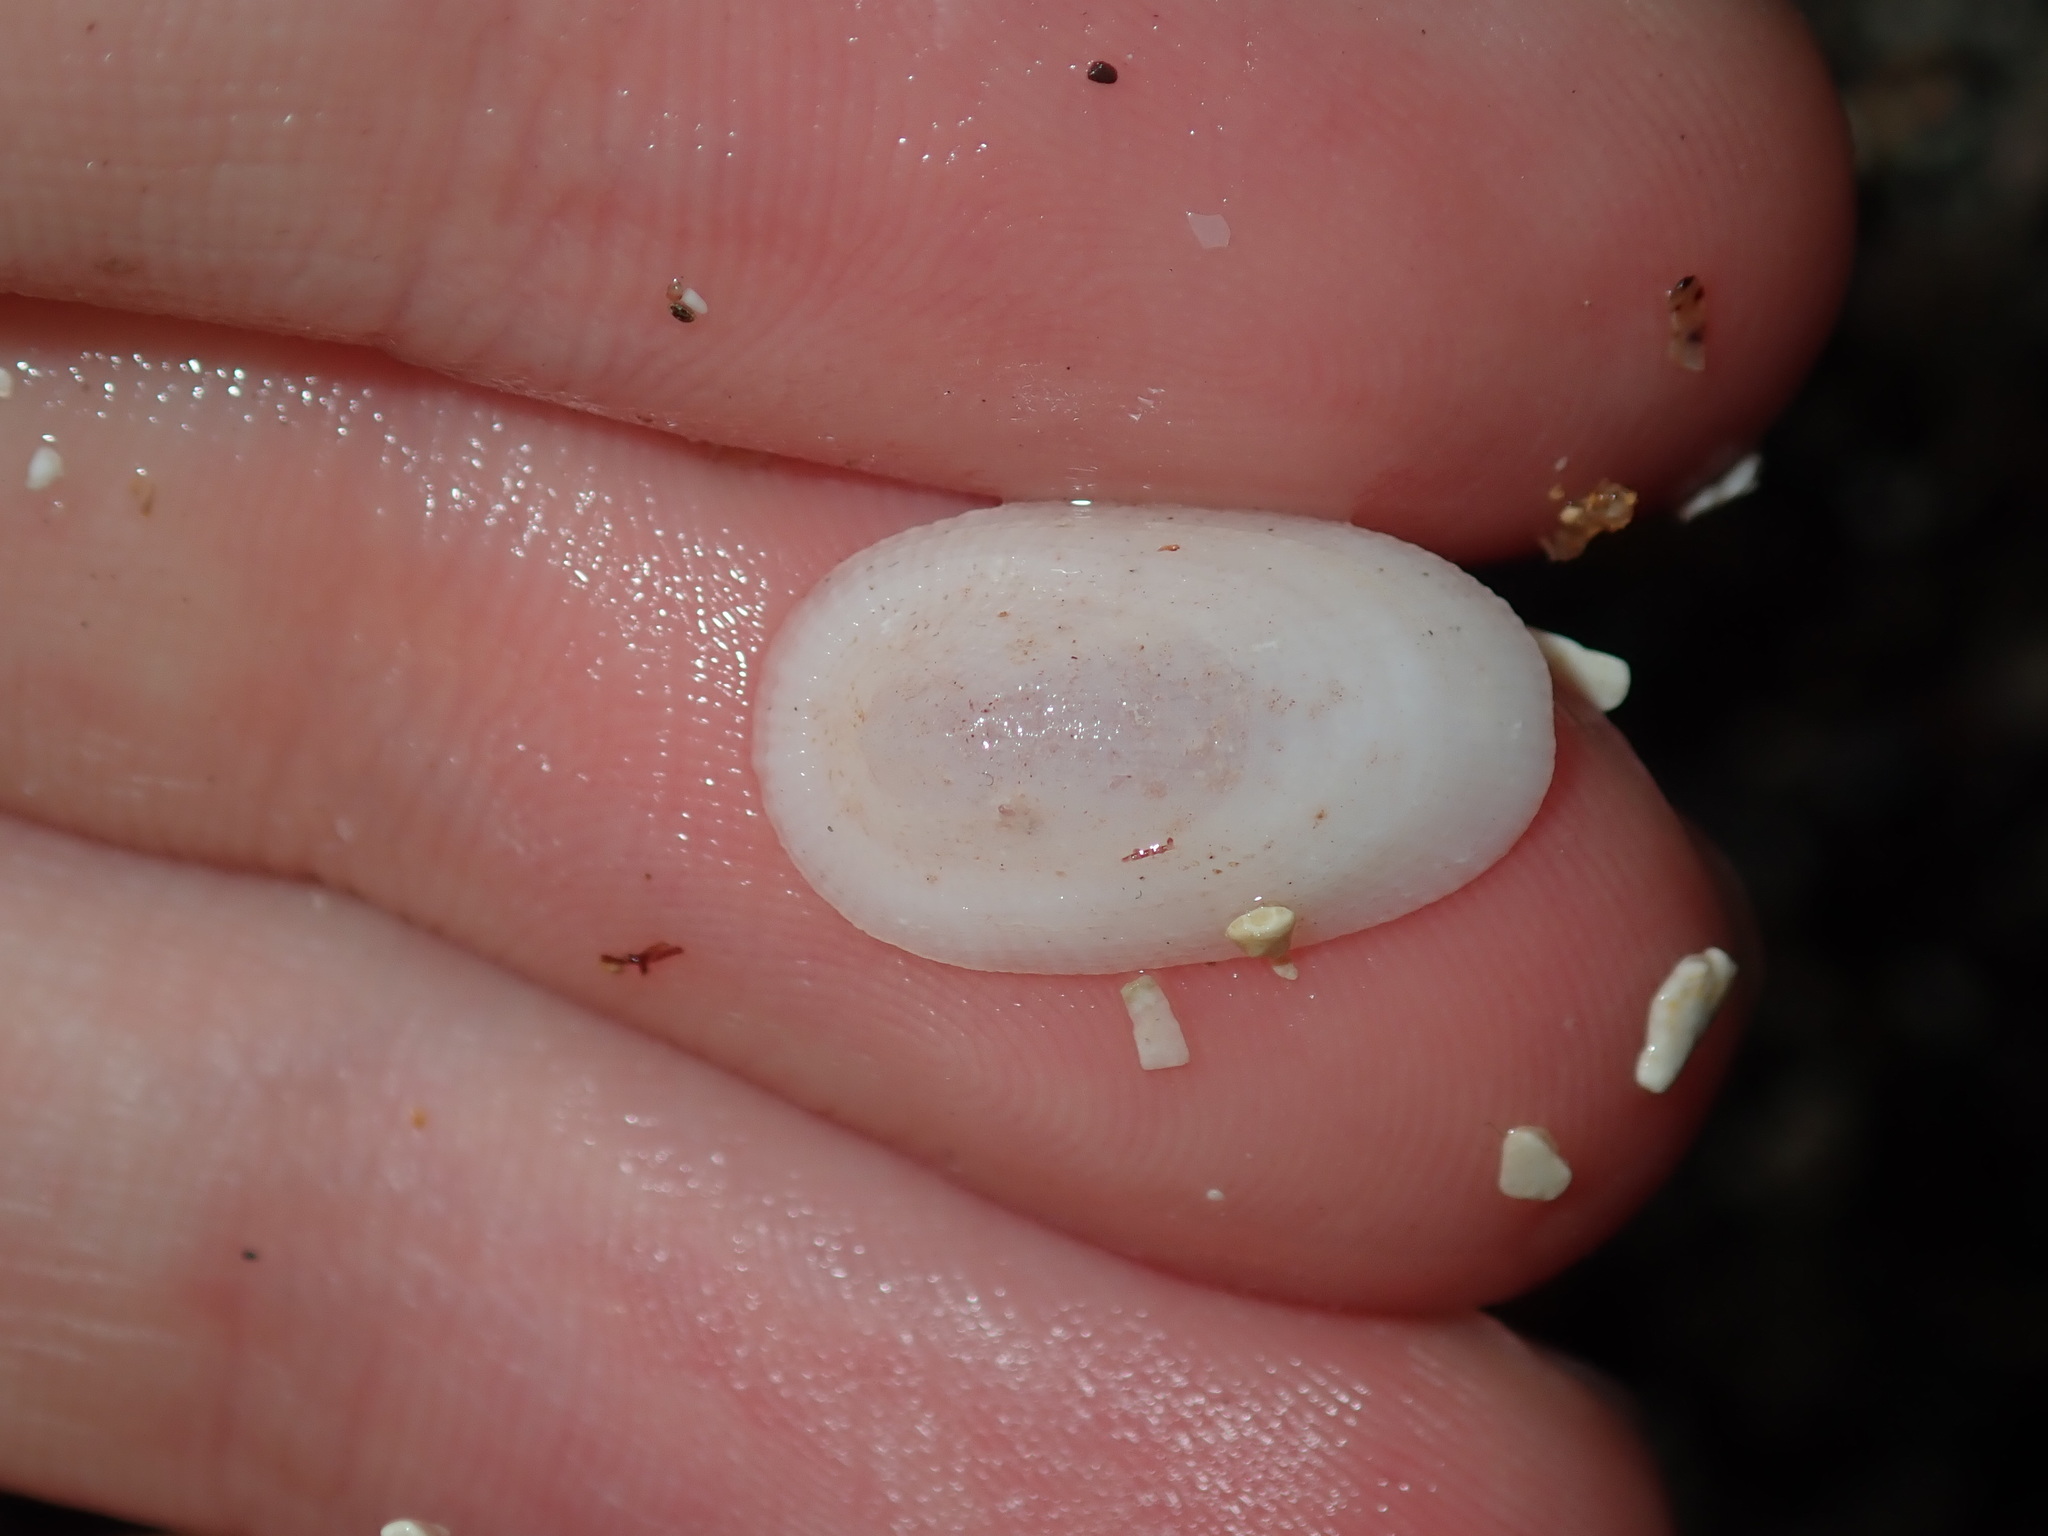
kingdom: Animalia
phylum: Mollusca
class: Gastropoda
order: Lepetellida
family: Fissurellidae
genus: Tugali
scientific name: Tugali parmophoidea
